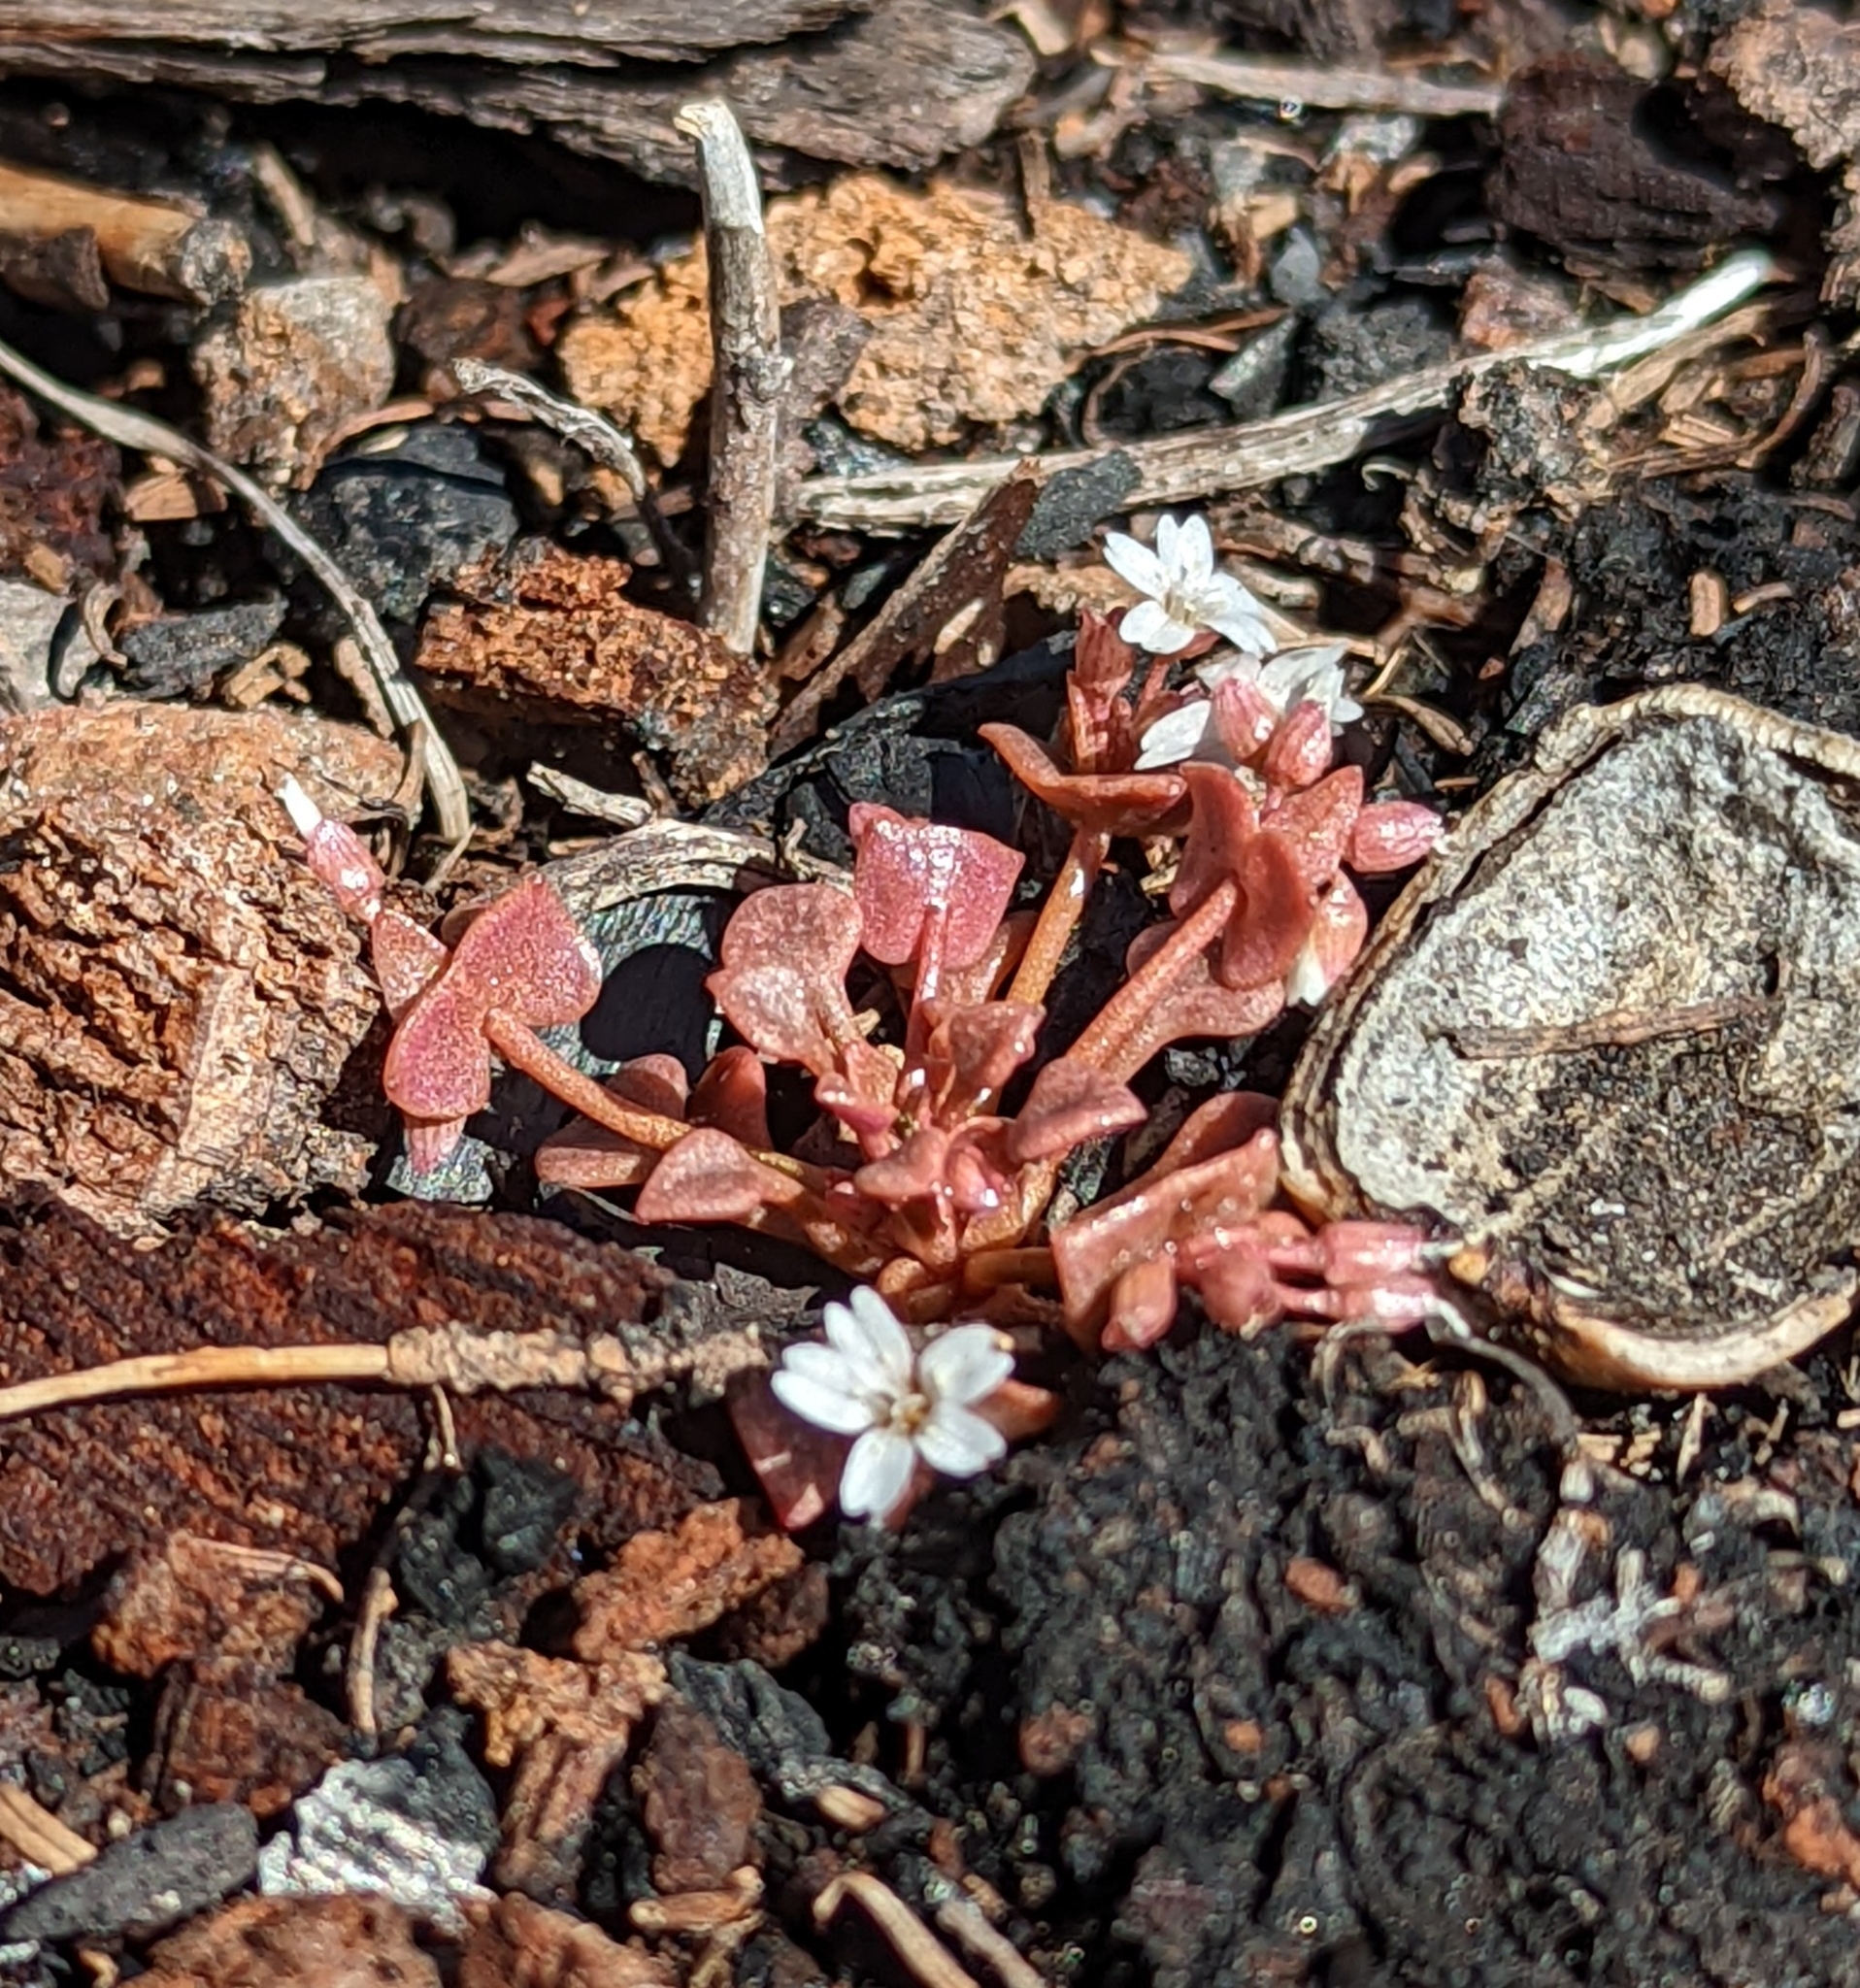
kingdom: Plantae
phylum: Tracheophyta
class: Magnoliopsida
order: Caryophyllales
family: Montiaceae
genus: Claytonia
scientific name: Claytonia rubra
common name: Erubescent miner's-lettuce
